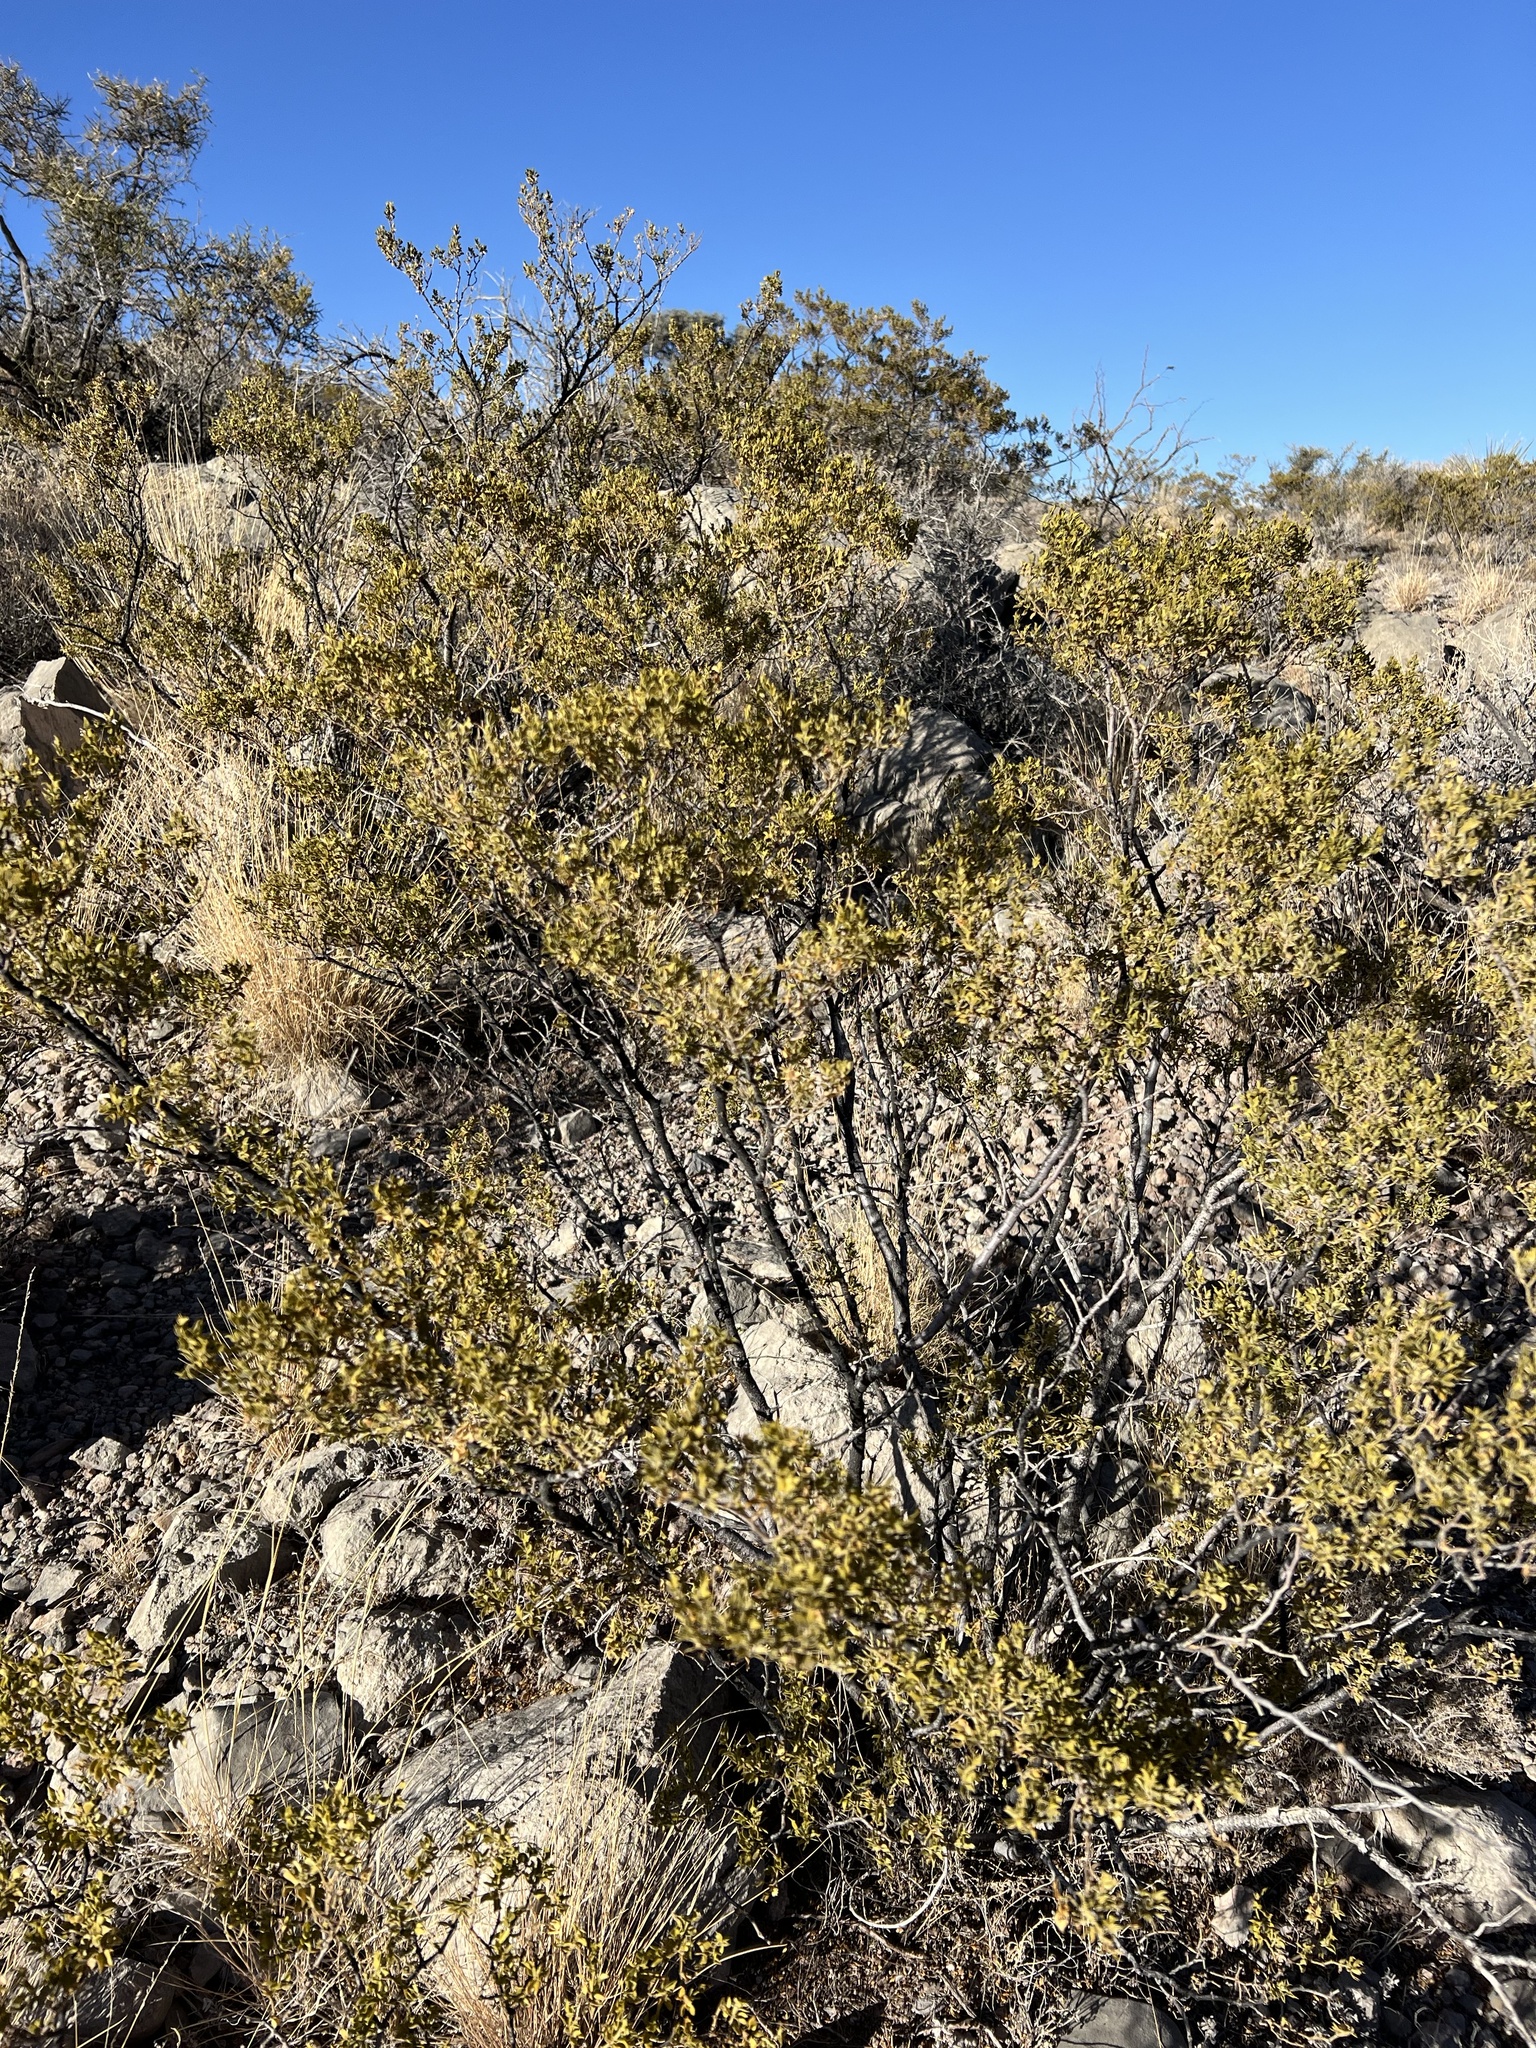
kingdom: Plantae
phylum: Tracheophyta
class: Magnoliopsida
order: Zygophyllales
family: Zygophyllaceae
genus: Larrea
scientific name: Larrea tridentata
